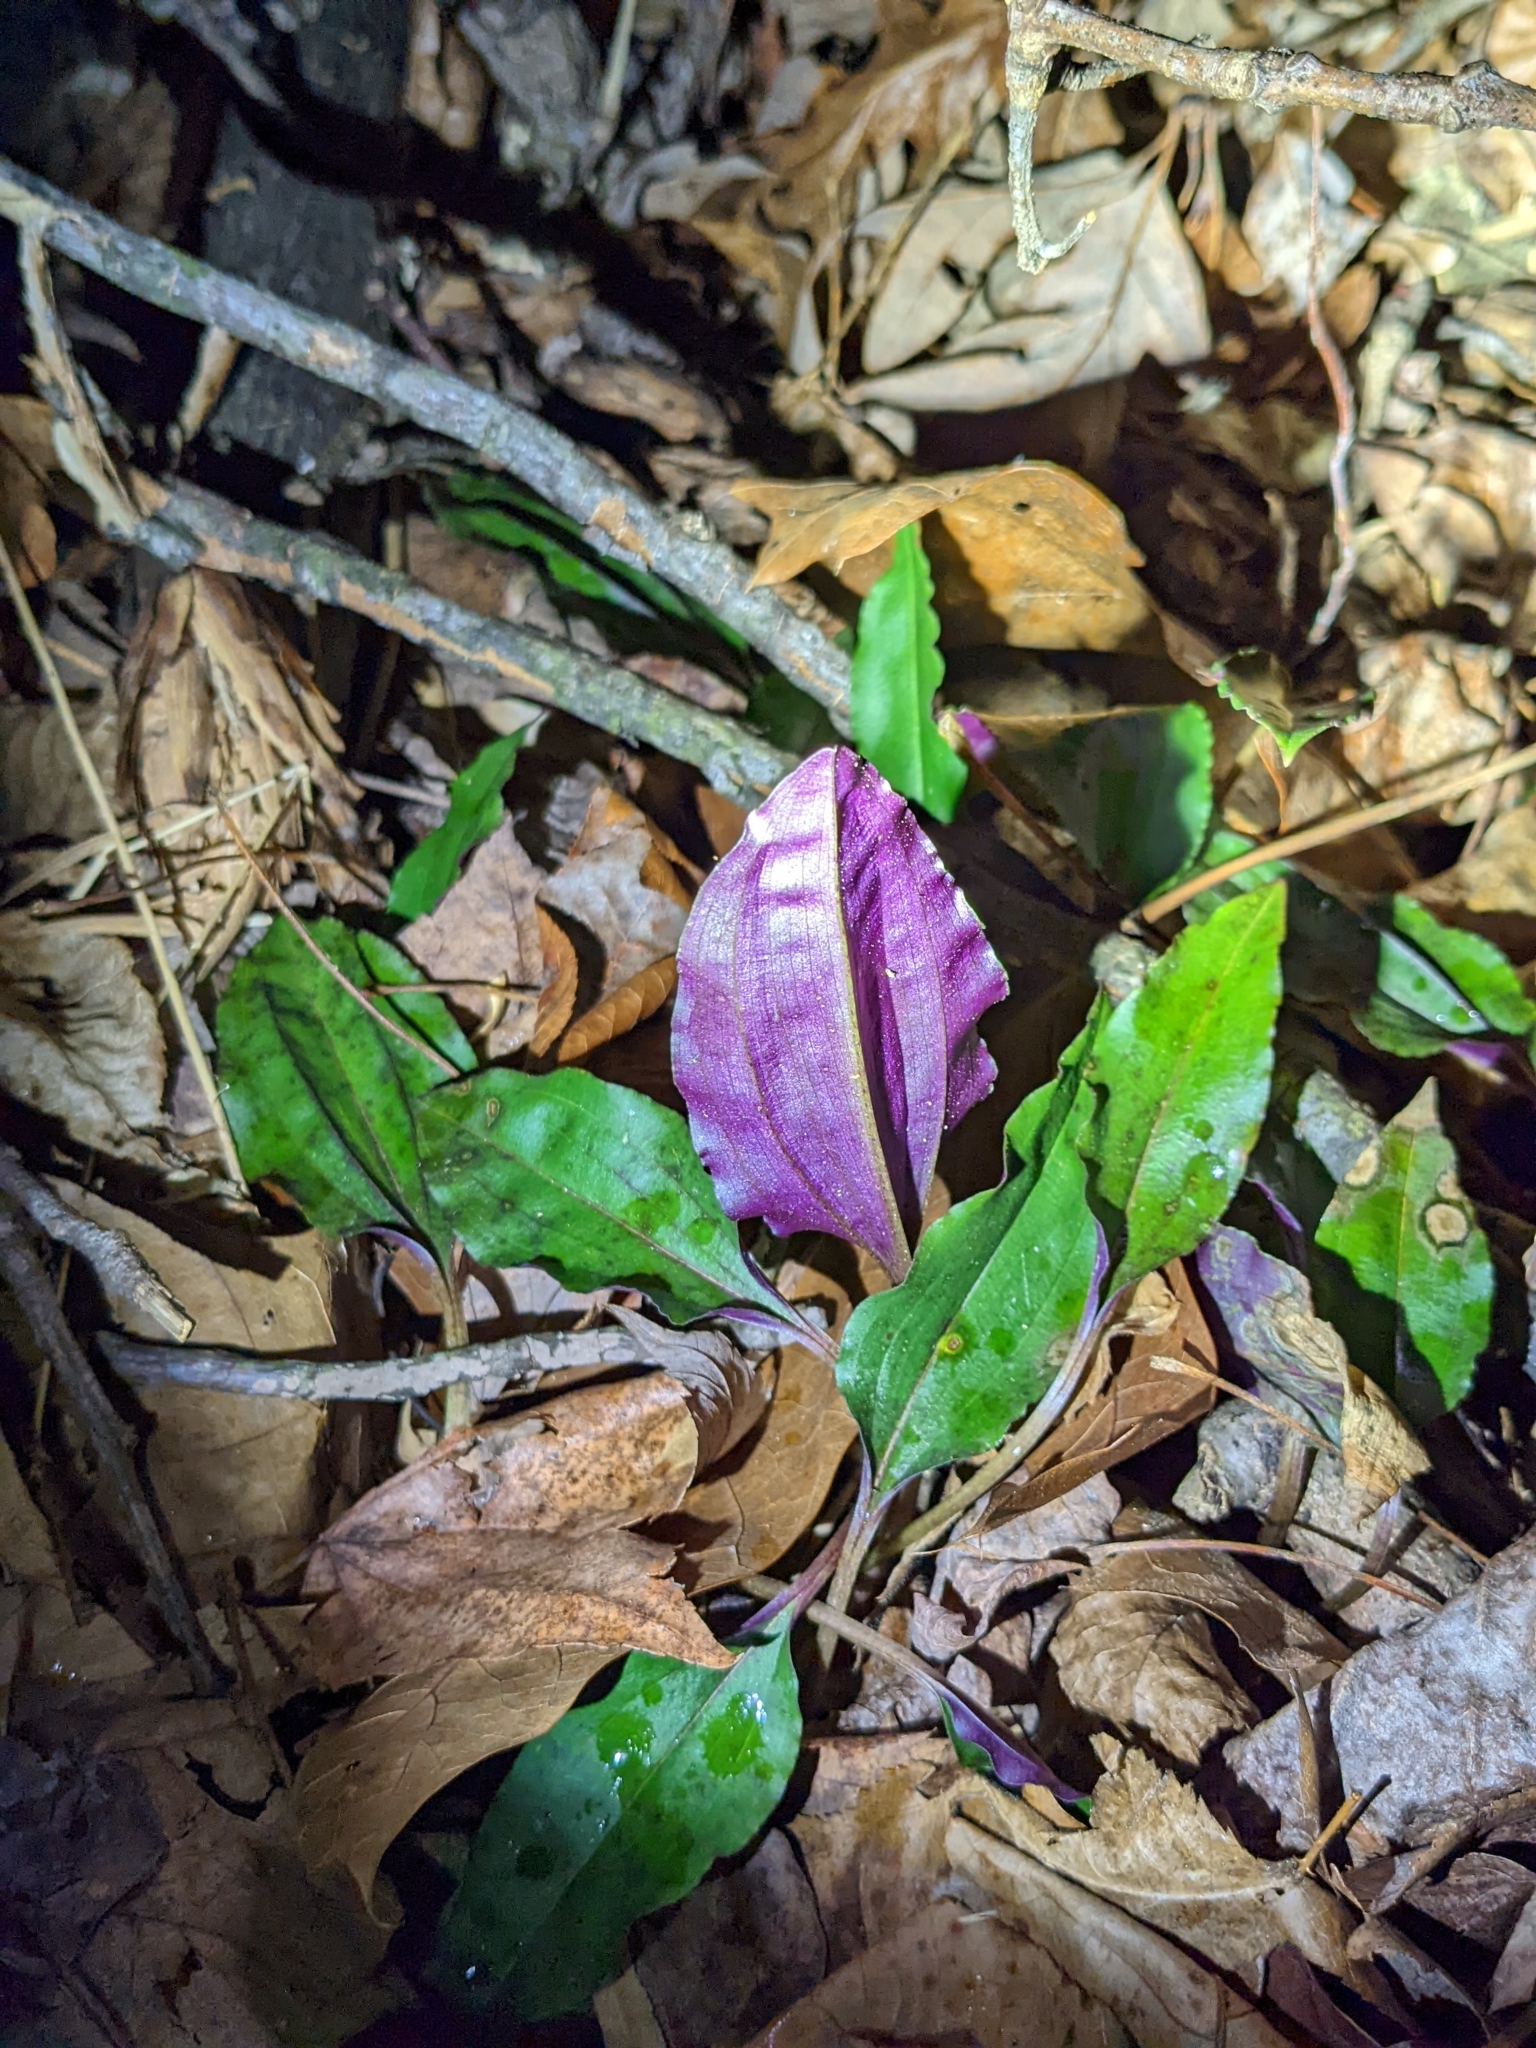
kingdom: Plantae
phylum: Tracheophyta
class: Liliopsida
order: Asparagales
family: Orchidaceae
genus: Tipularia
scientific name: Tipularia discolor
